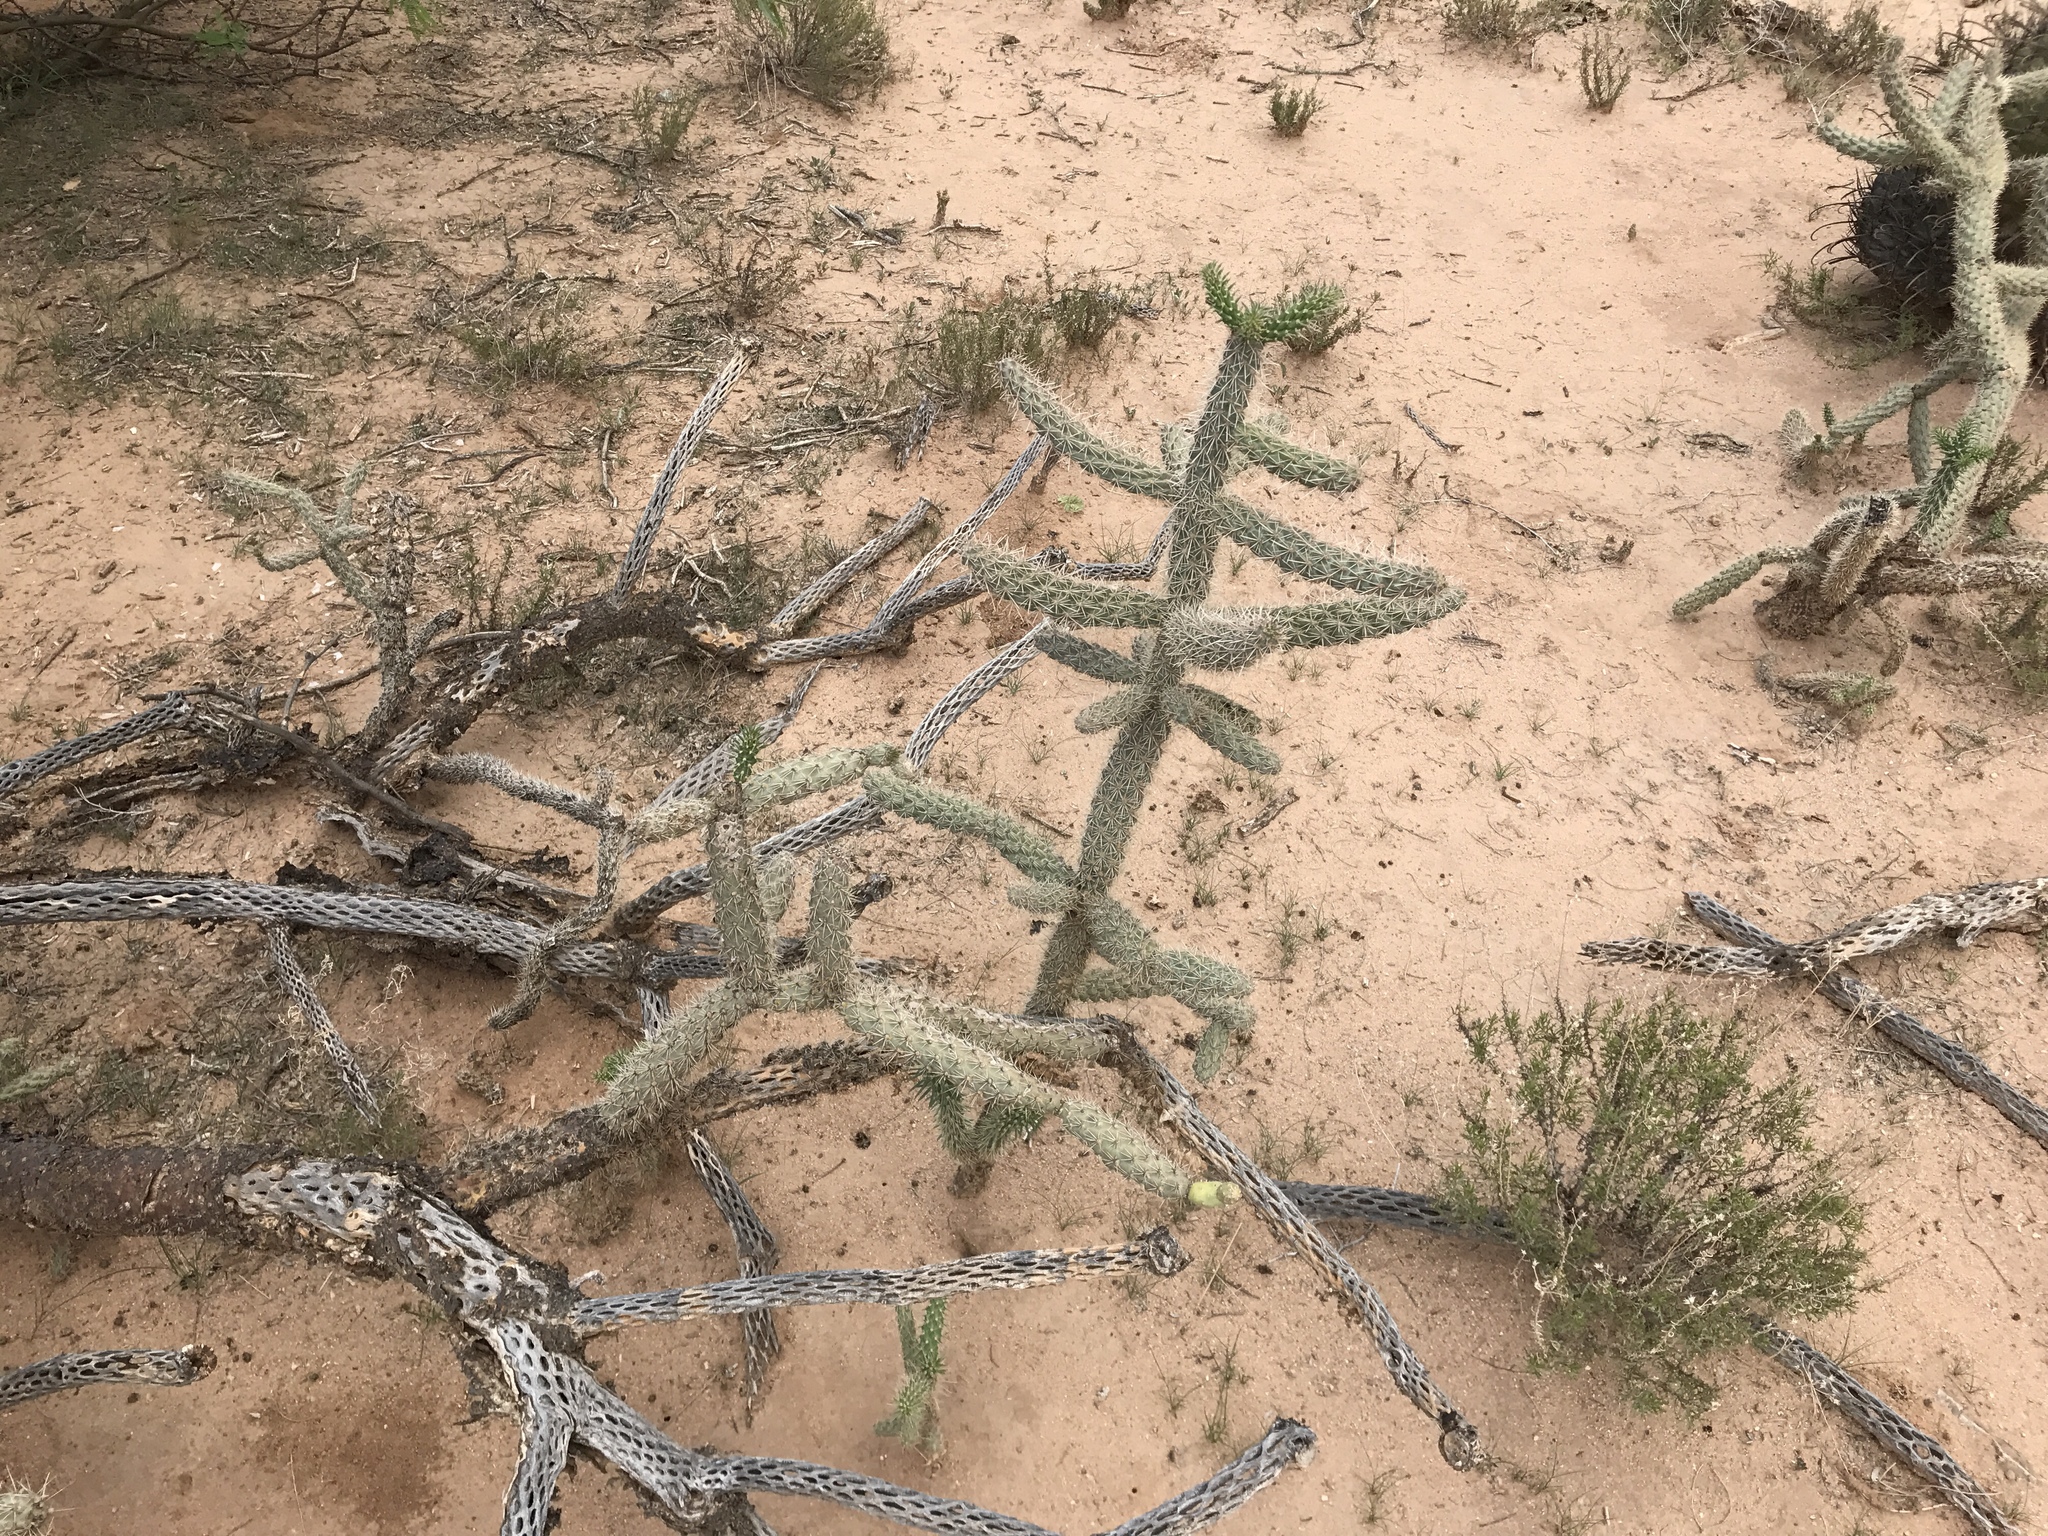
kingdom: Plantae
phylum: Tracheophyta
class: Magnoliopsida
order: Caryophyllales
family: Cactaceae
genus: Cylindropuntia
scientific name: Cylindropuntia imbricata
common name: Candelabrum cactus
